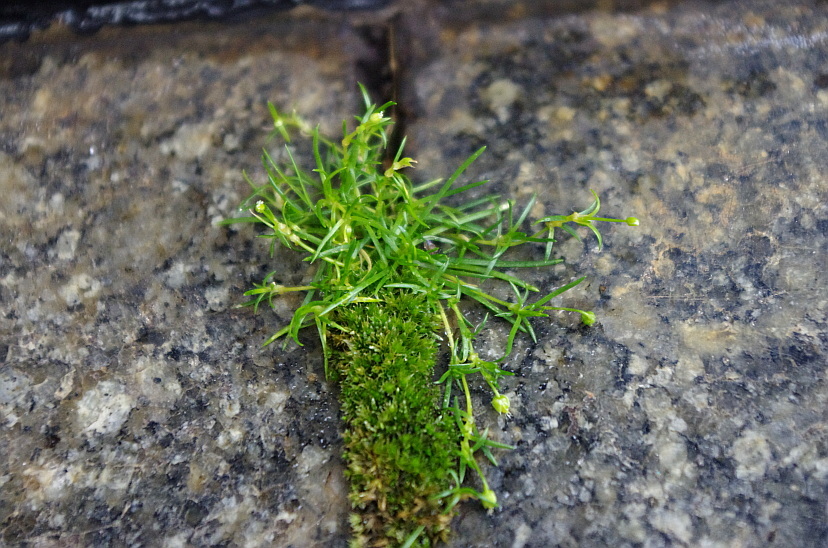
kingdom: Plantae
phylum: Tracheophyta
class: Magnoliopsida
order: Caryophyllales
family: Caryophyllaceae
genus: Sagina
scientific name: Sagina procumbens
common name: Procumbent pearlwort
